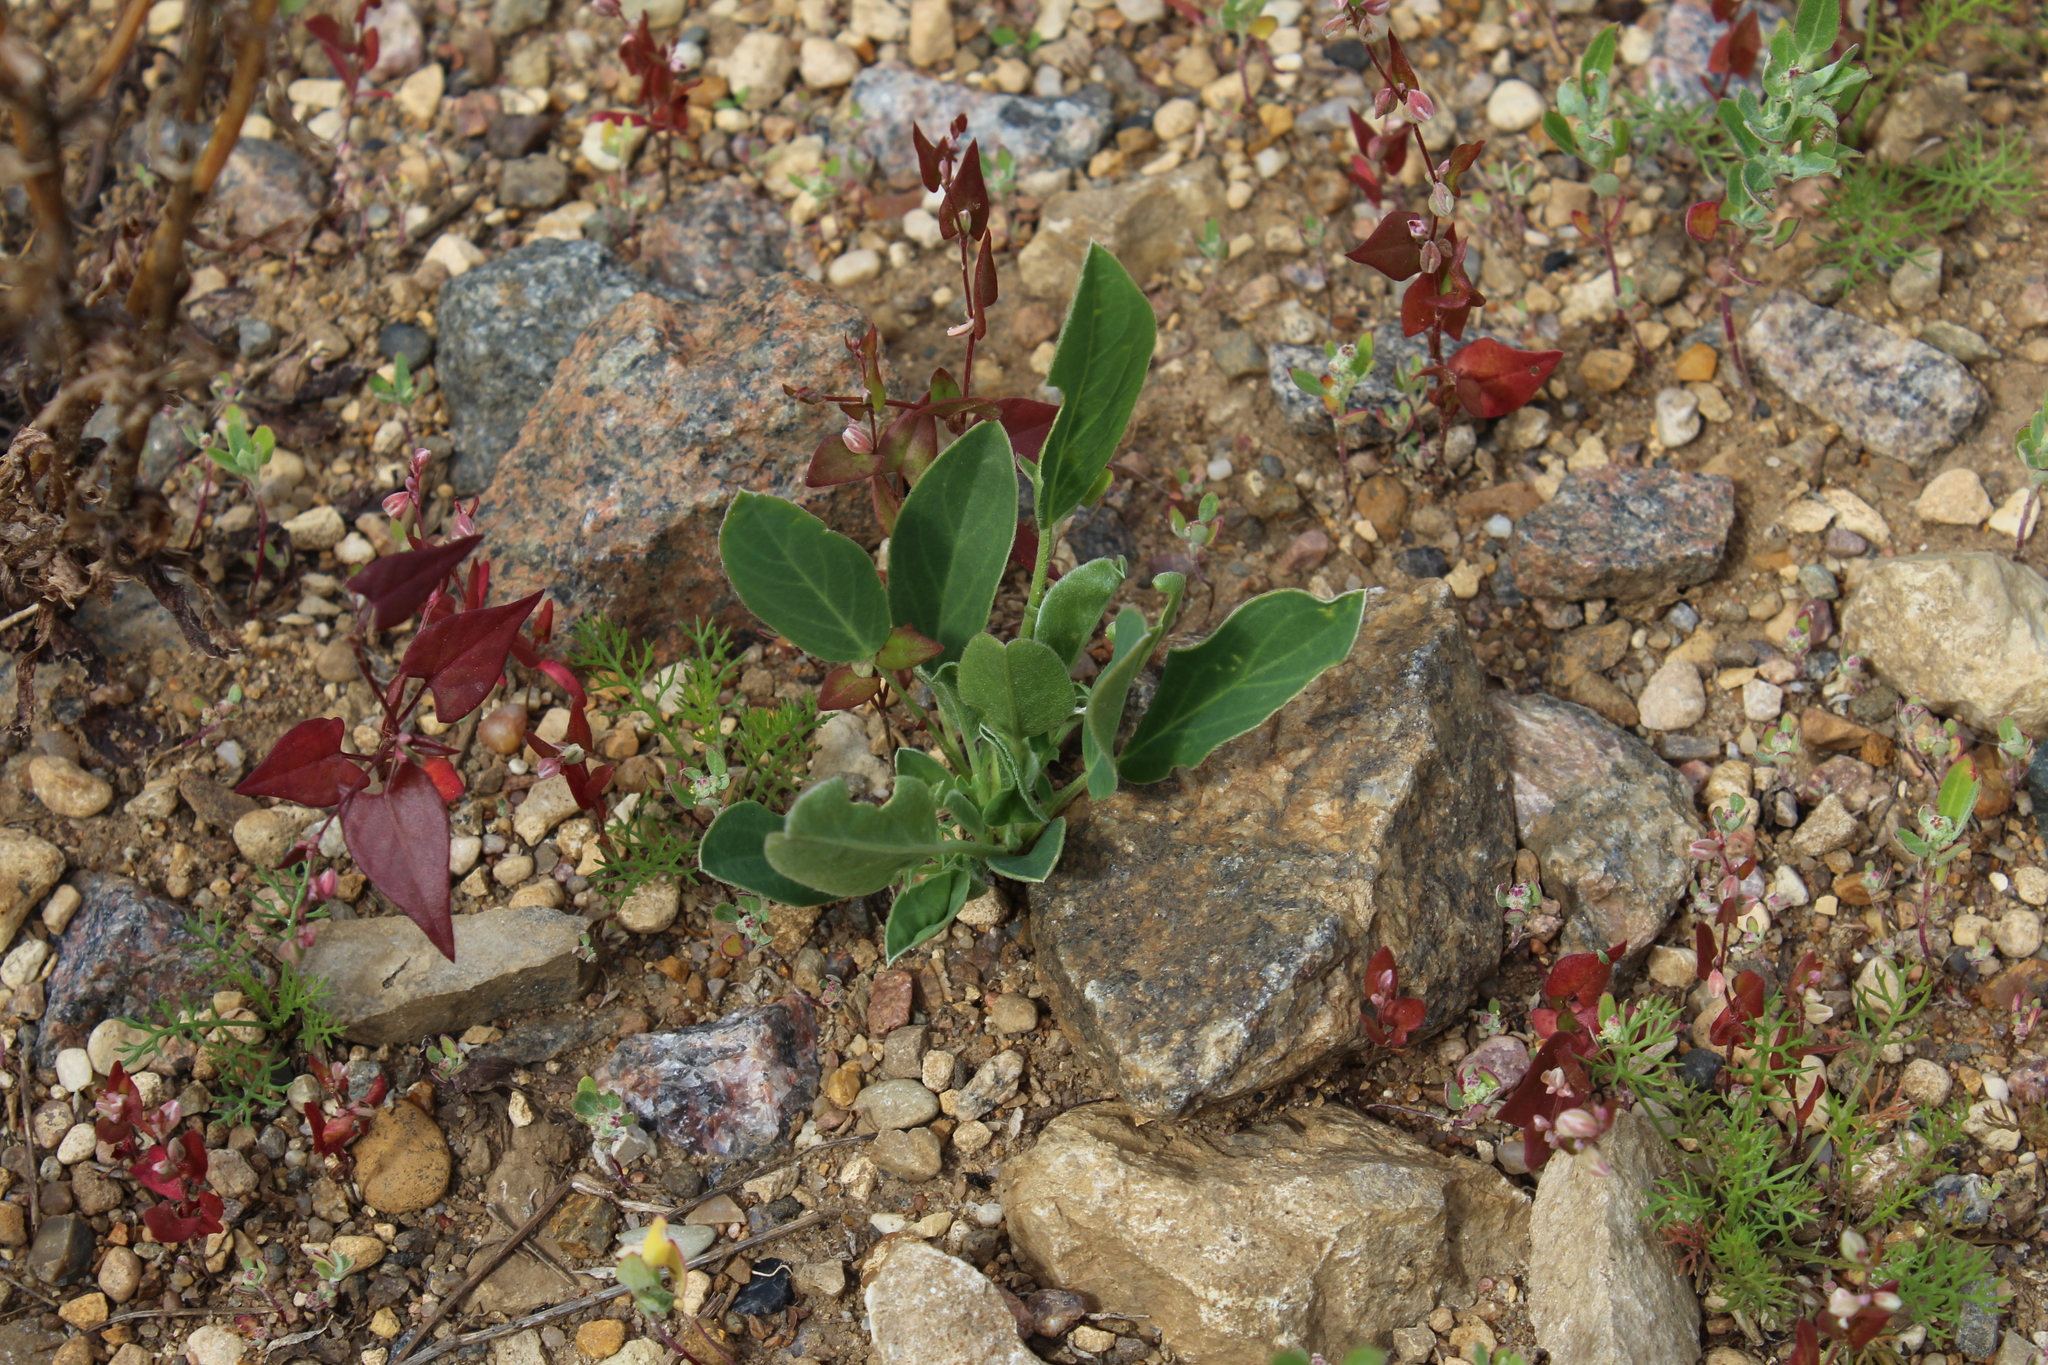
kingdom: Plantae
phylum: Tracheophyta
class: Magnoliopsida
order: Fabales
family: Fabaceae
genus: Anthyllis
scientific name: Anthyllis vulneraria
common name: Kidney vetch
